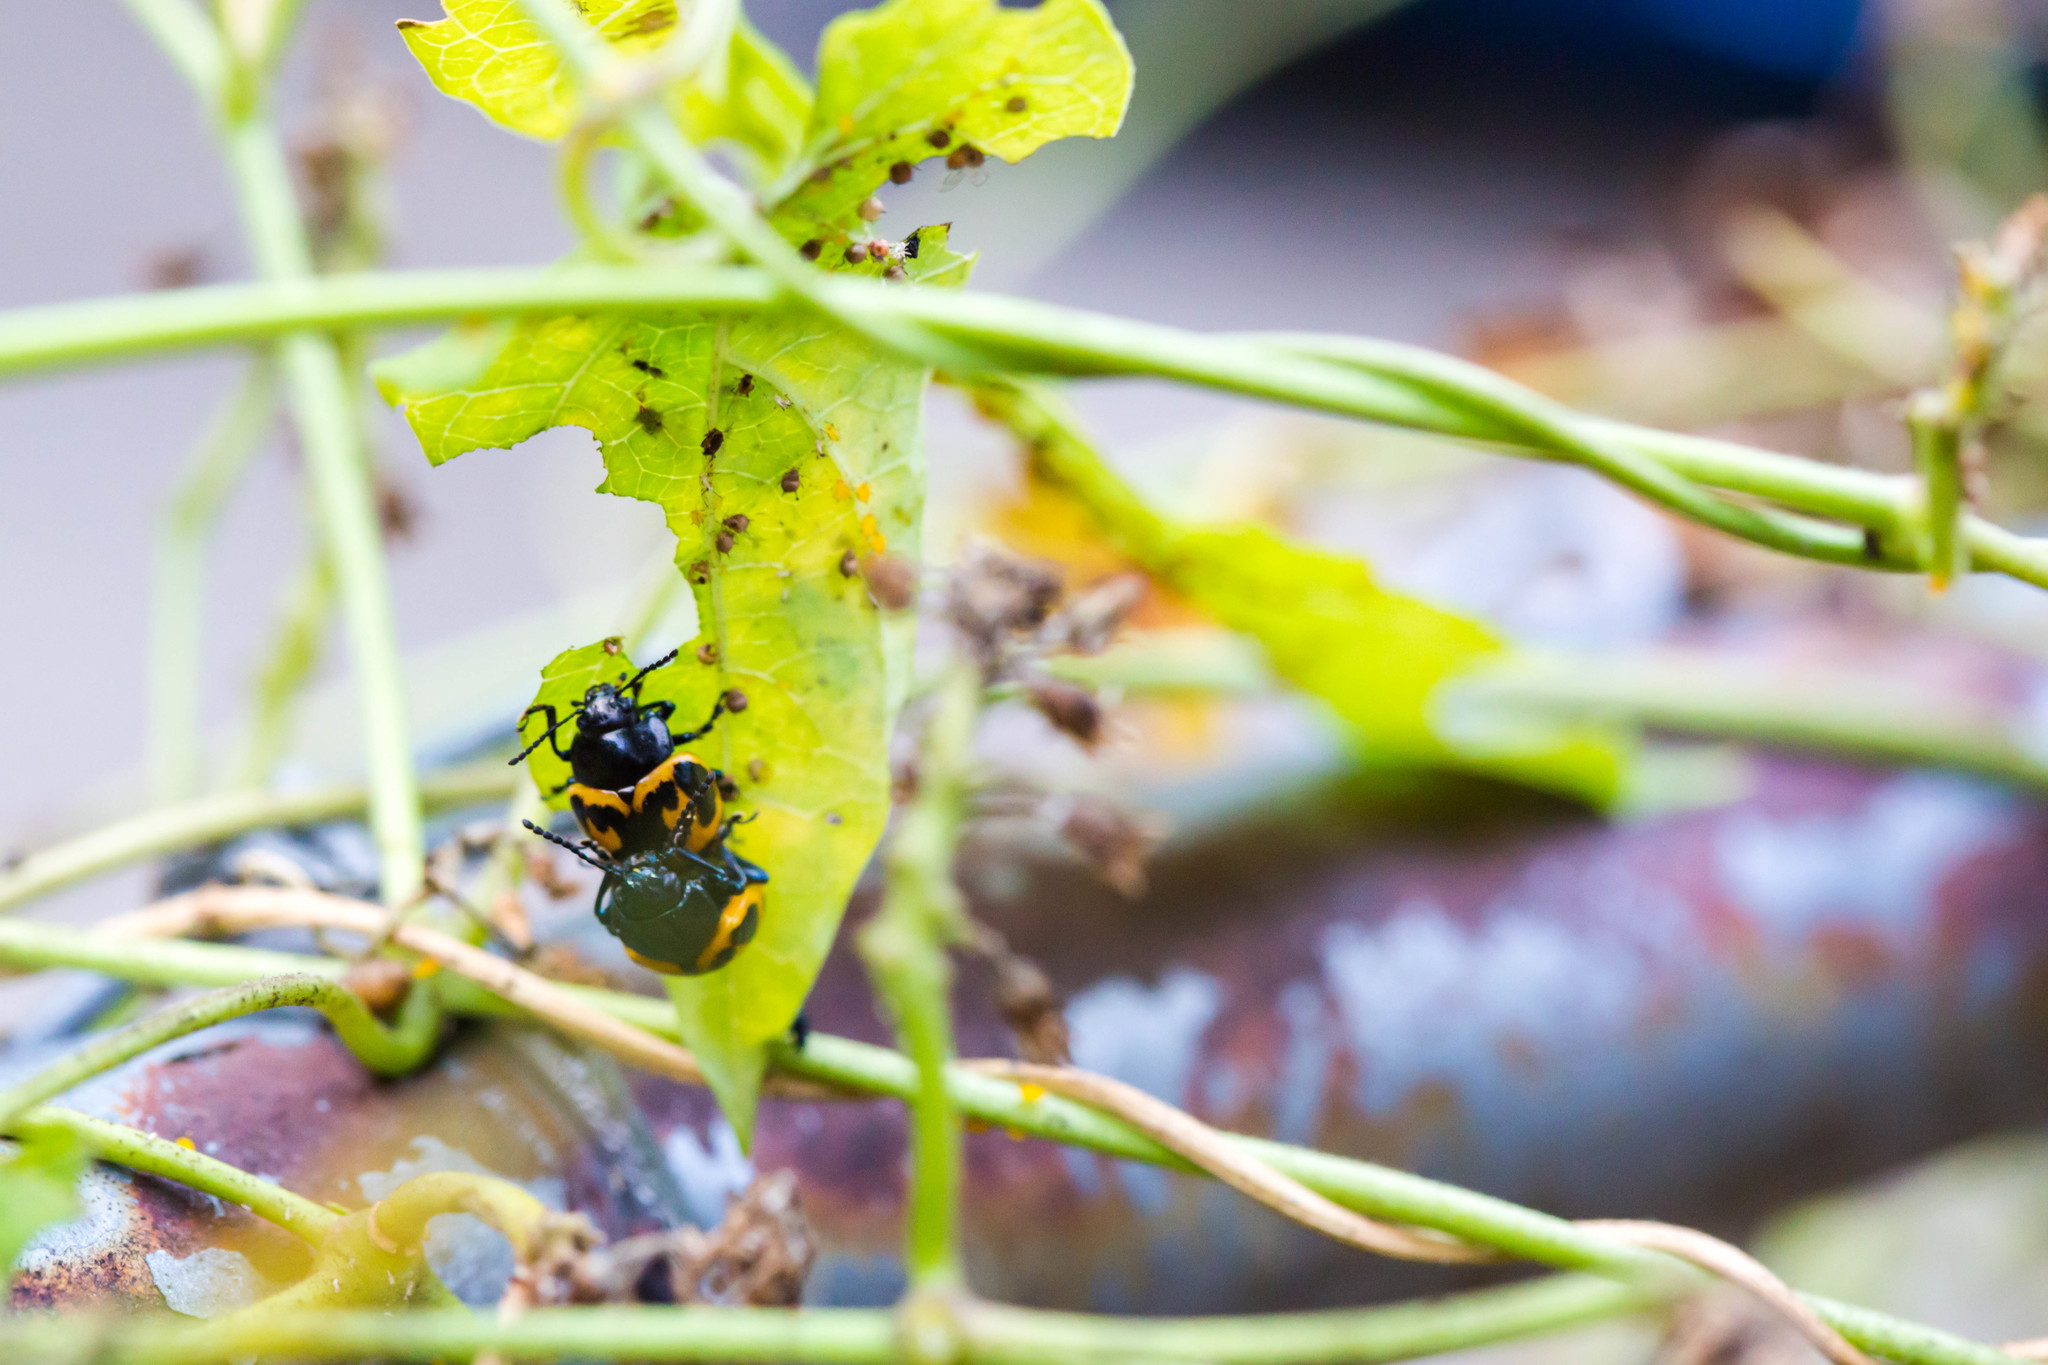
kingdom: Animalia
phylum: Arthropoda
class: Insecta
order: Coleoptera
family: Chrysomelidae
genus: Labidomera
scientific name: Labidomera clivicollis
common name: Swamp milkweed leaf beetle
